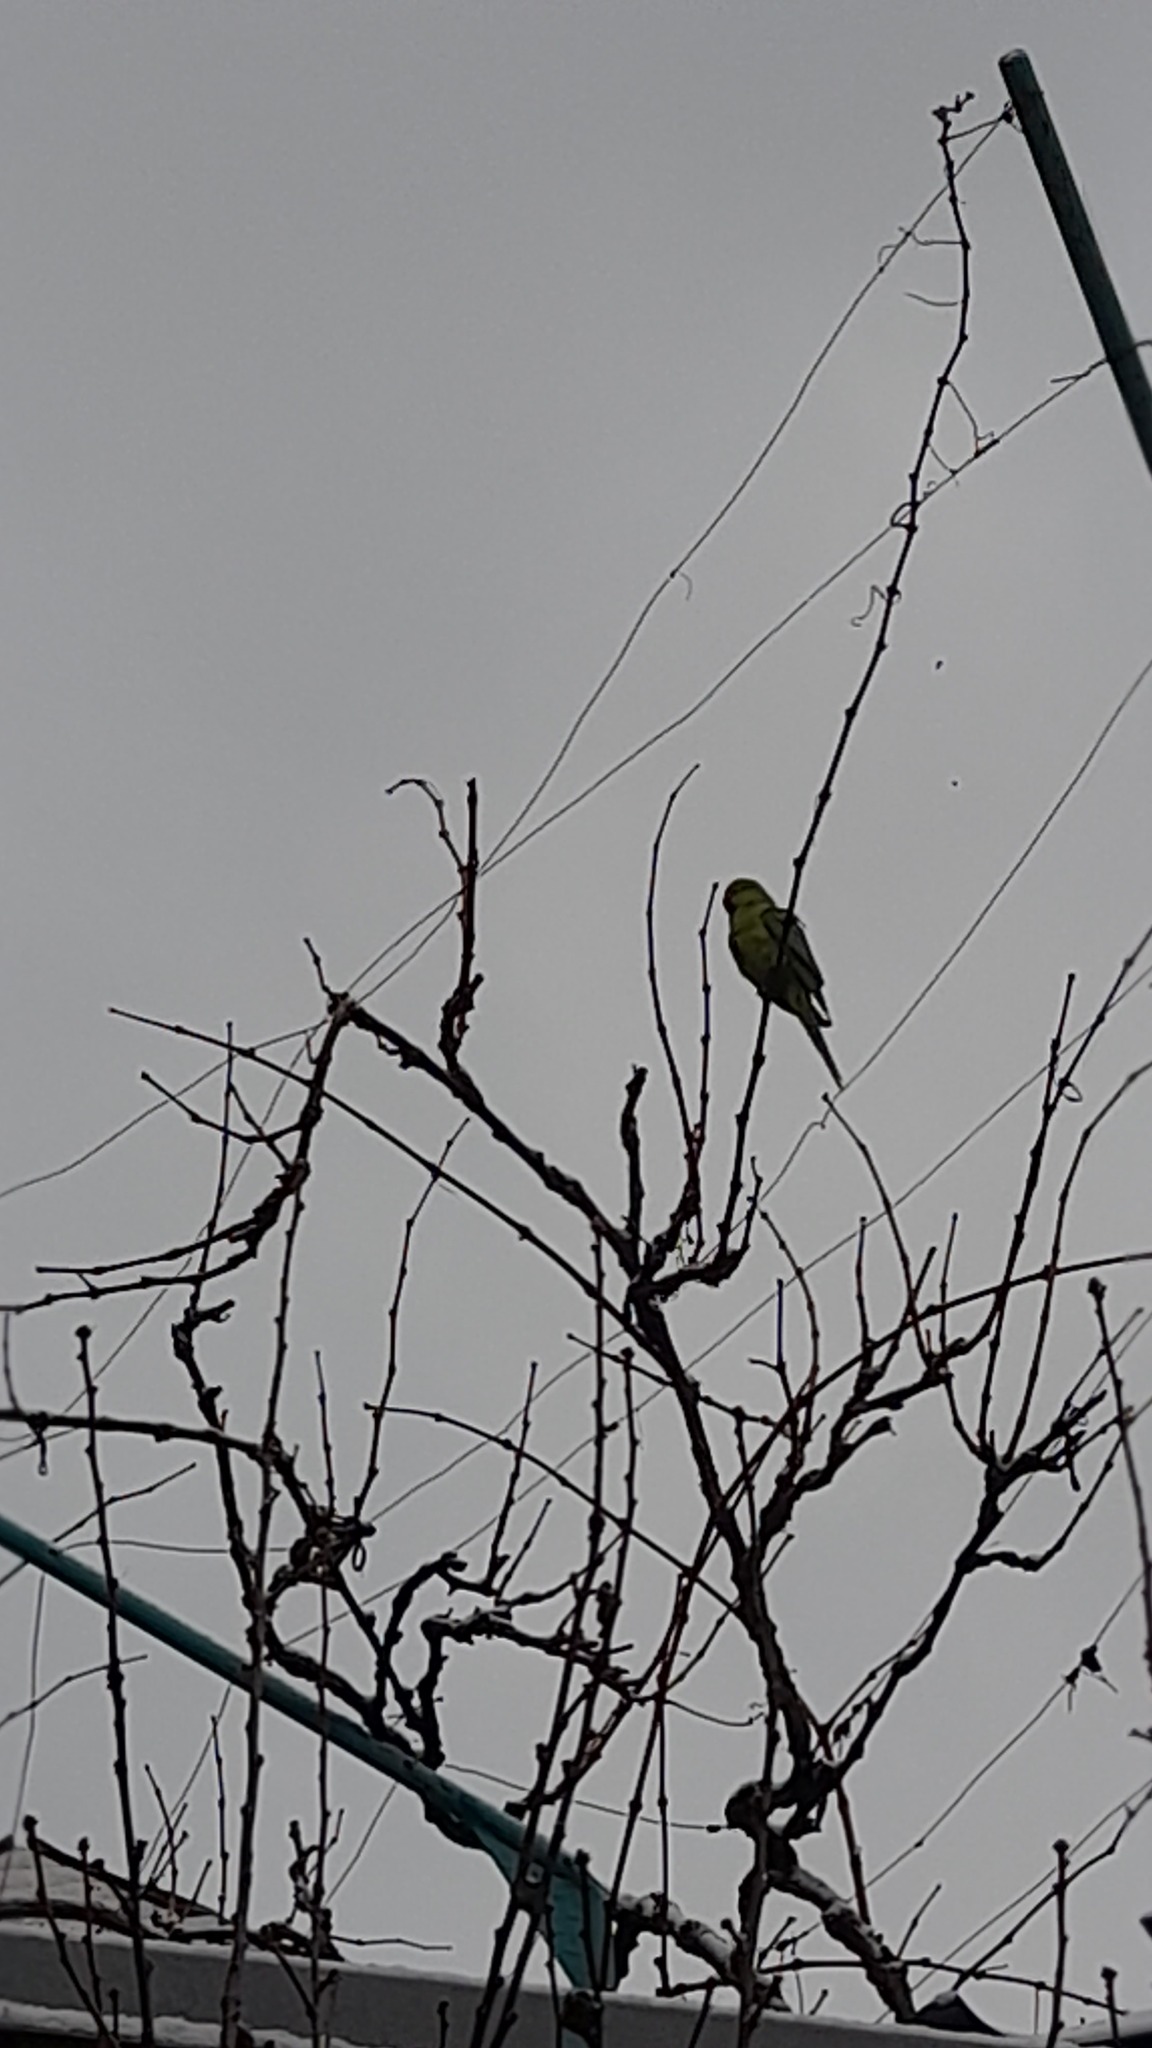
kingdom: Animalia
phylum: Chordata
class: Aves
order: Psittaciformes
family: Psittacidae
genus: Psittacula
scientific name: Psittacula krameri
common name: Rose-ringed parakeet
